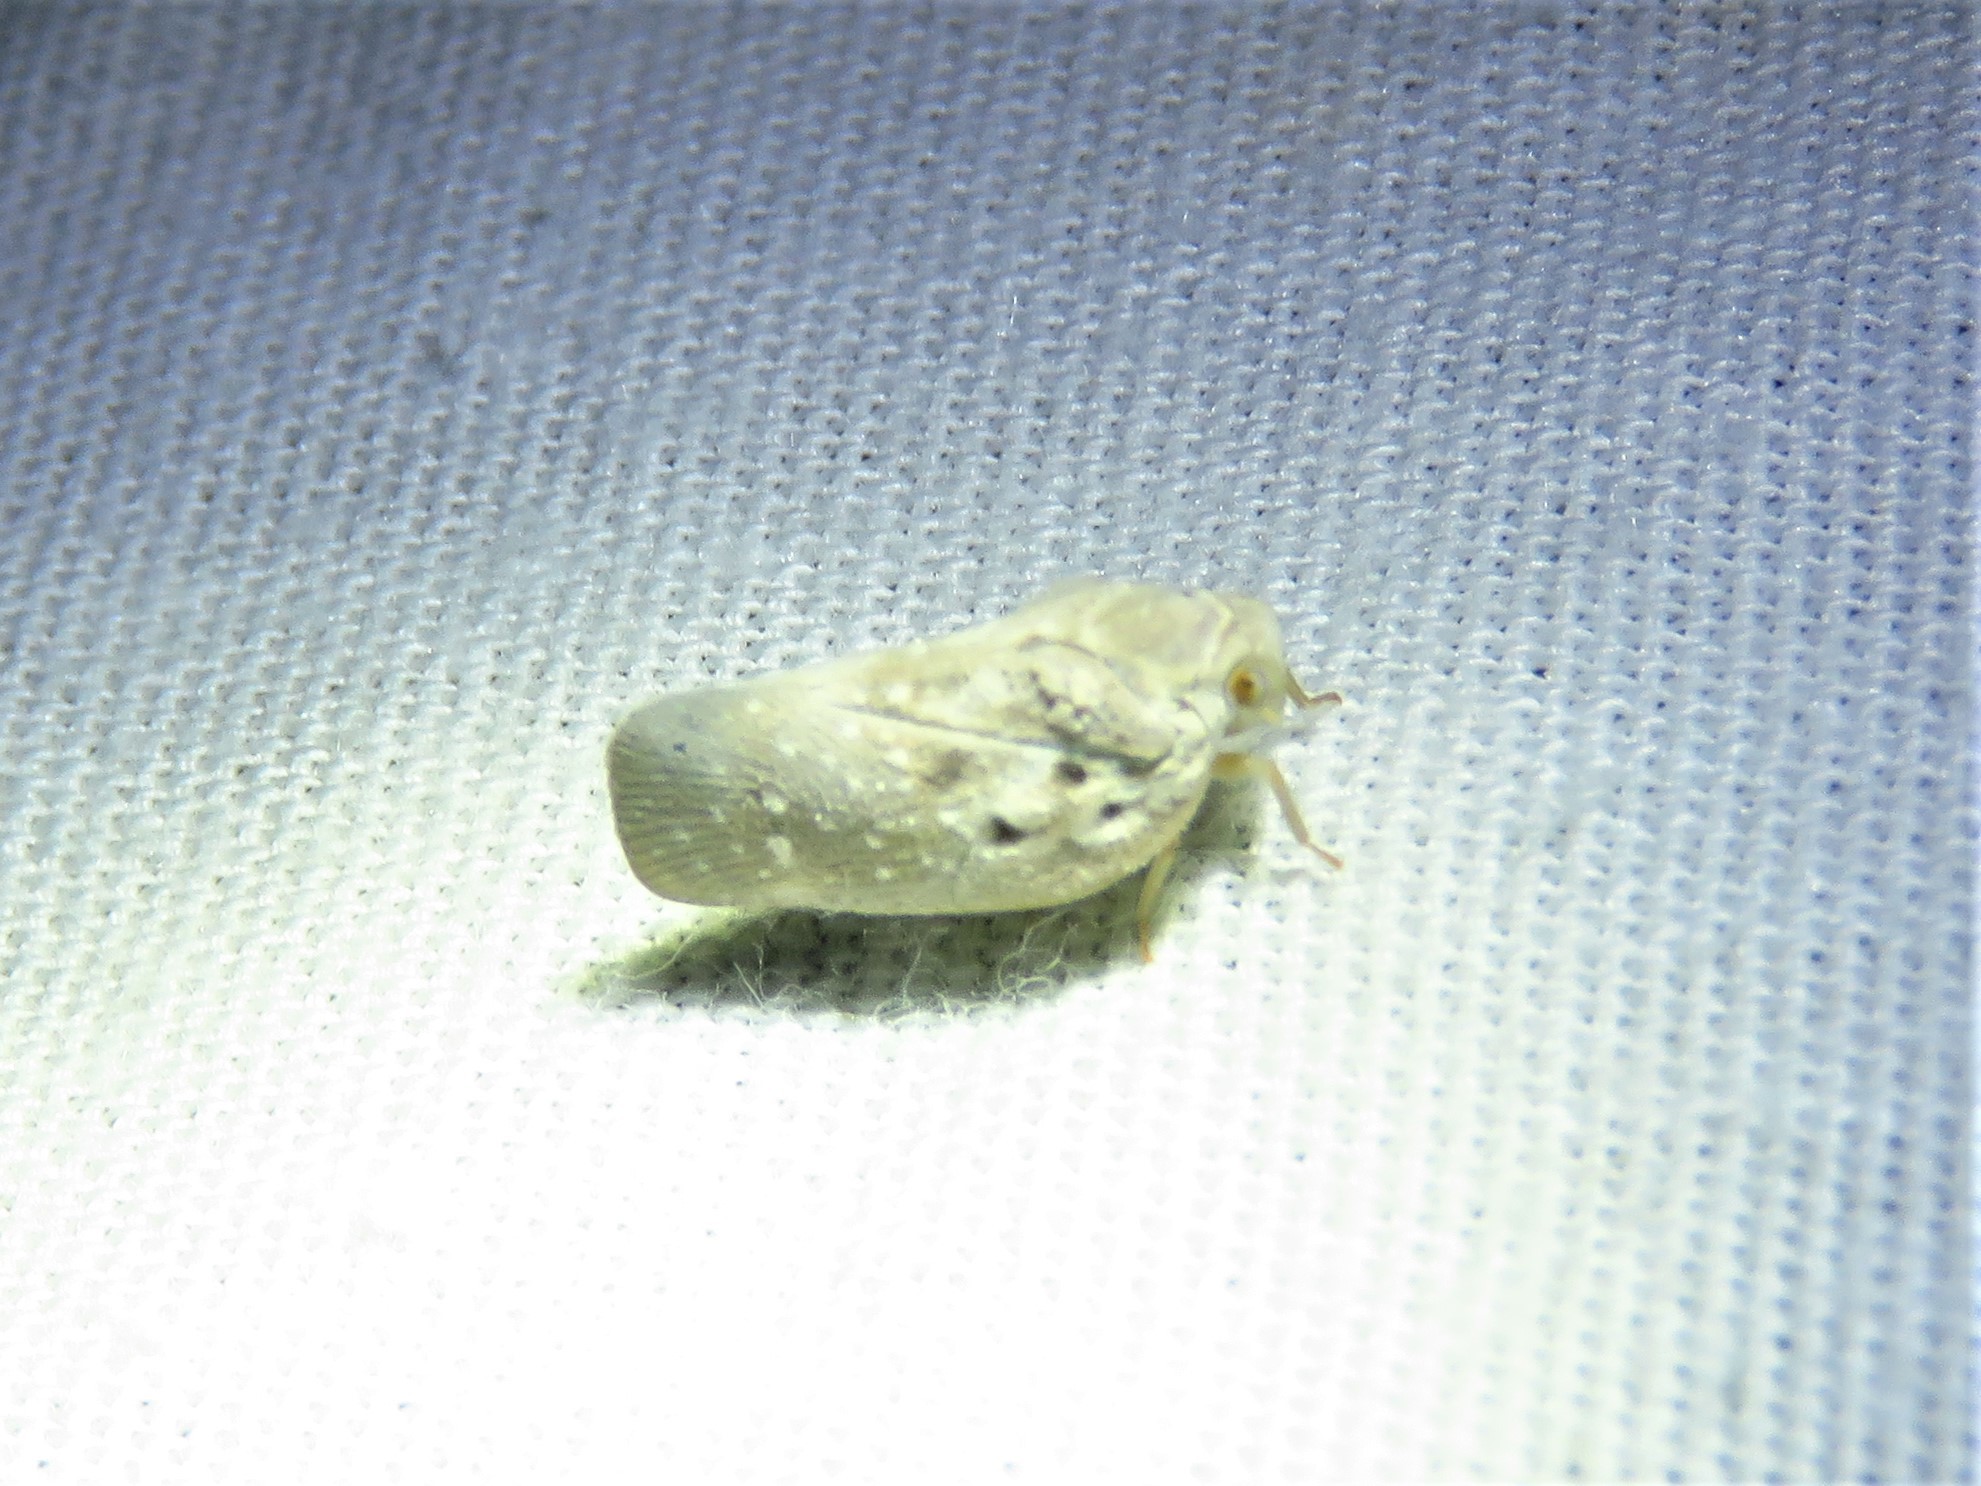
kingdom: Animalia
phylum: Arthropoda
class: Insecta
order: Hemiptera
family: Flatidae
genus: Metcalfa
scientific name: Metcalfa pruinosa
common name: Citrus flatid planthopper
